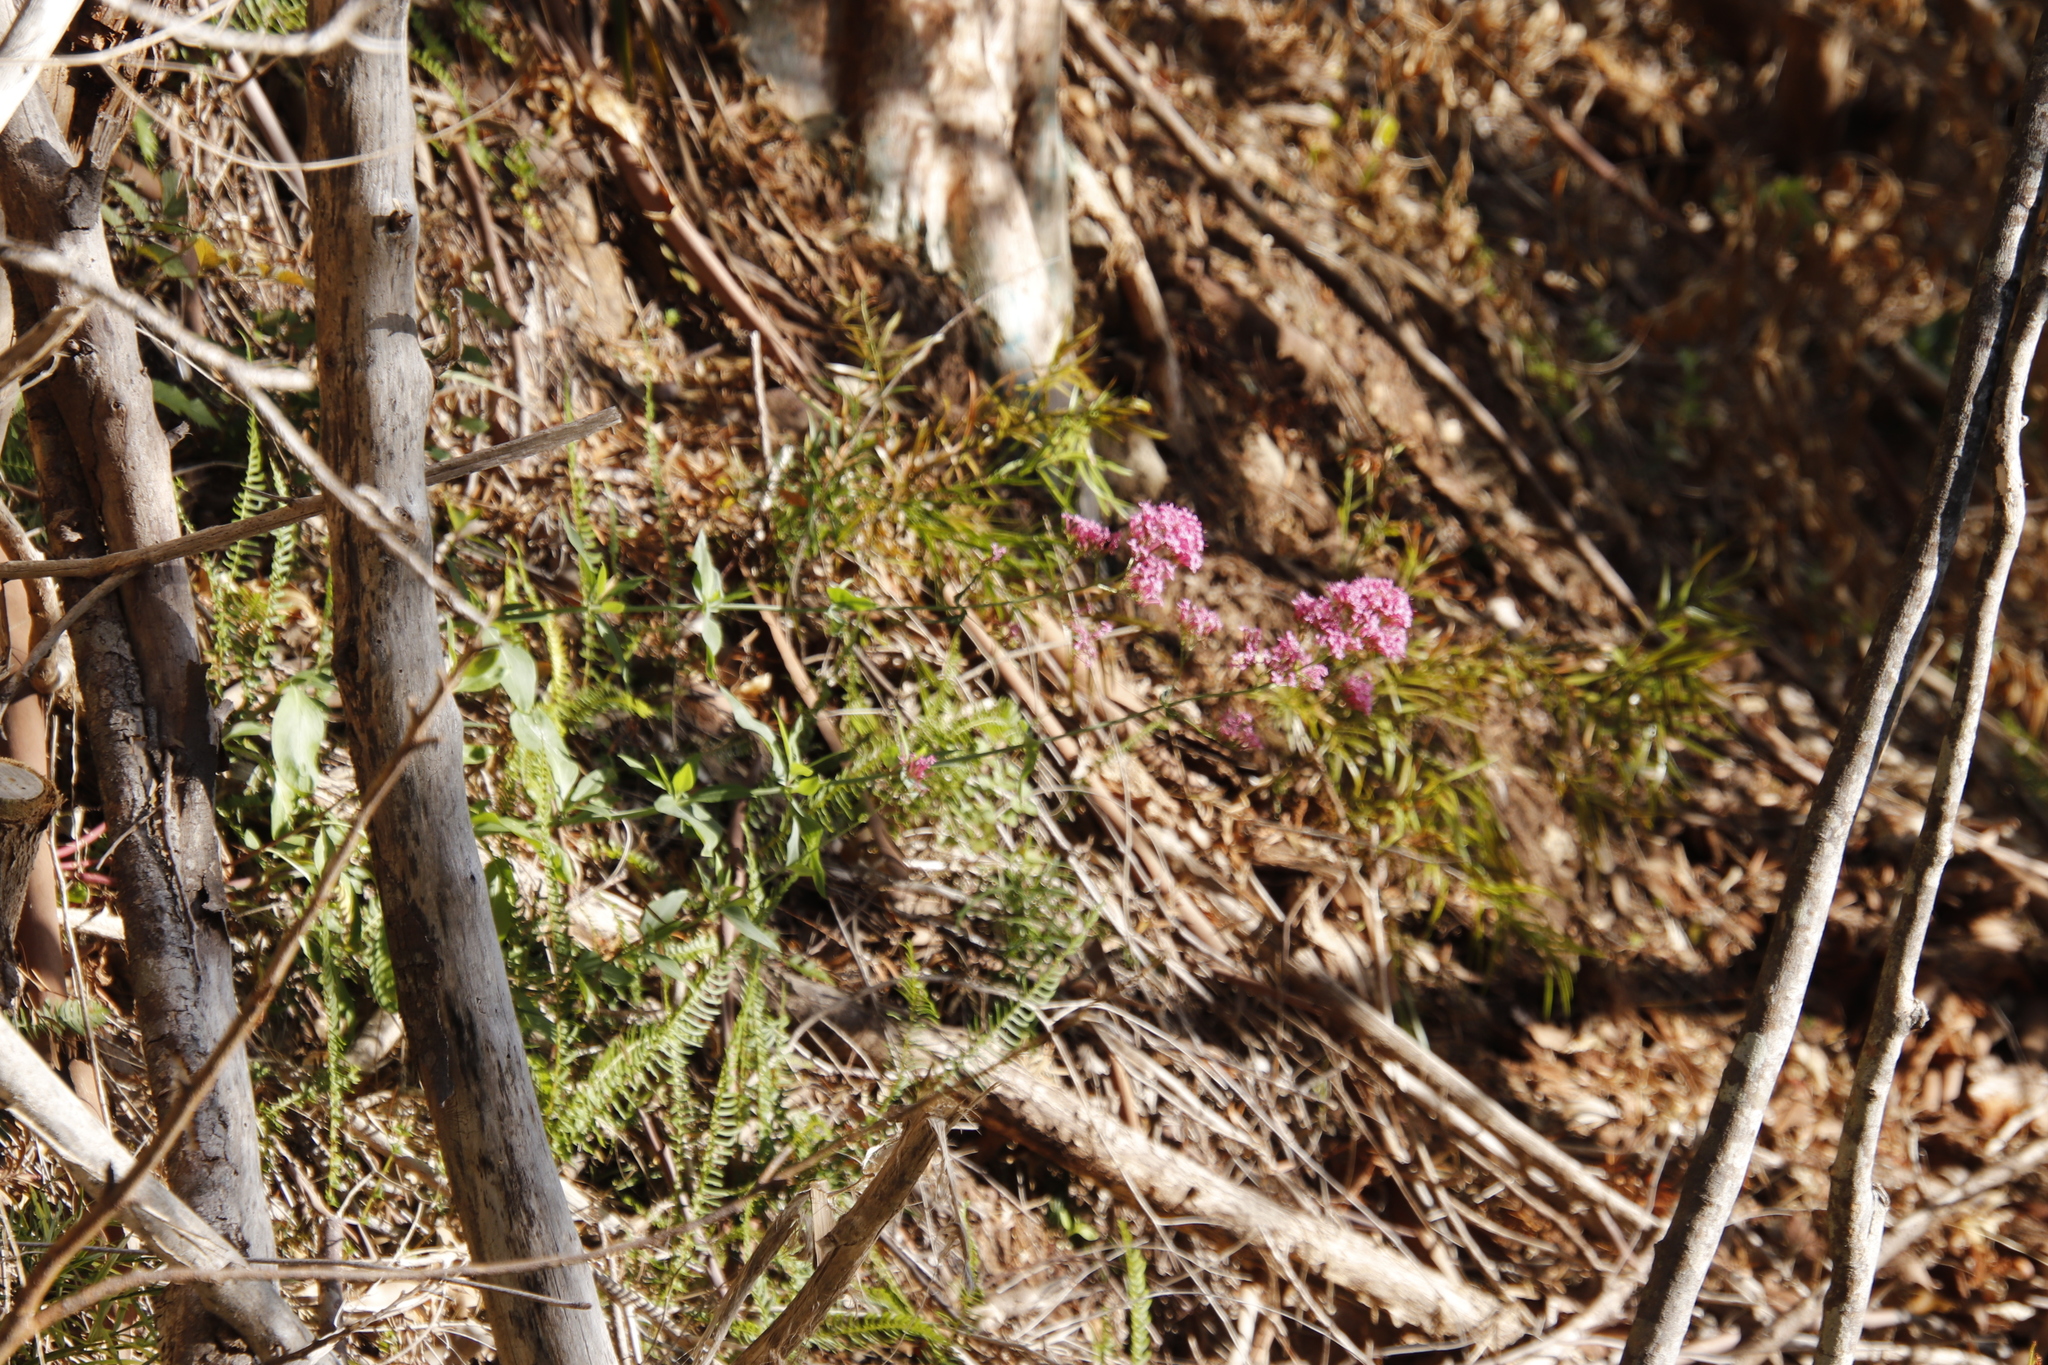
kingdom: Plantae
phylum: Tracheophyta
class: Magnoliopsida
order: Dipsacales
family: Caprifoliaceae
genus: Centranthus
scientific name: Centranthus ruber
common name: Red valerian
